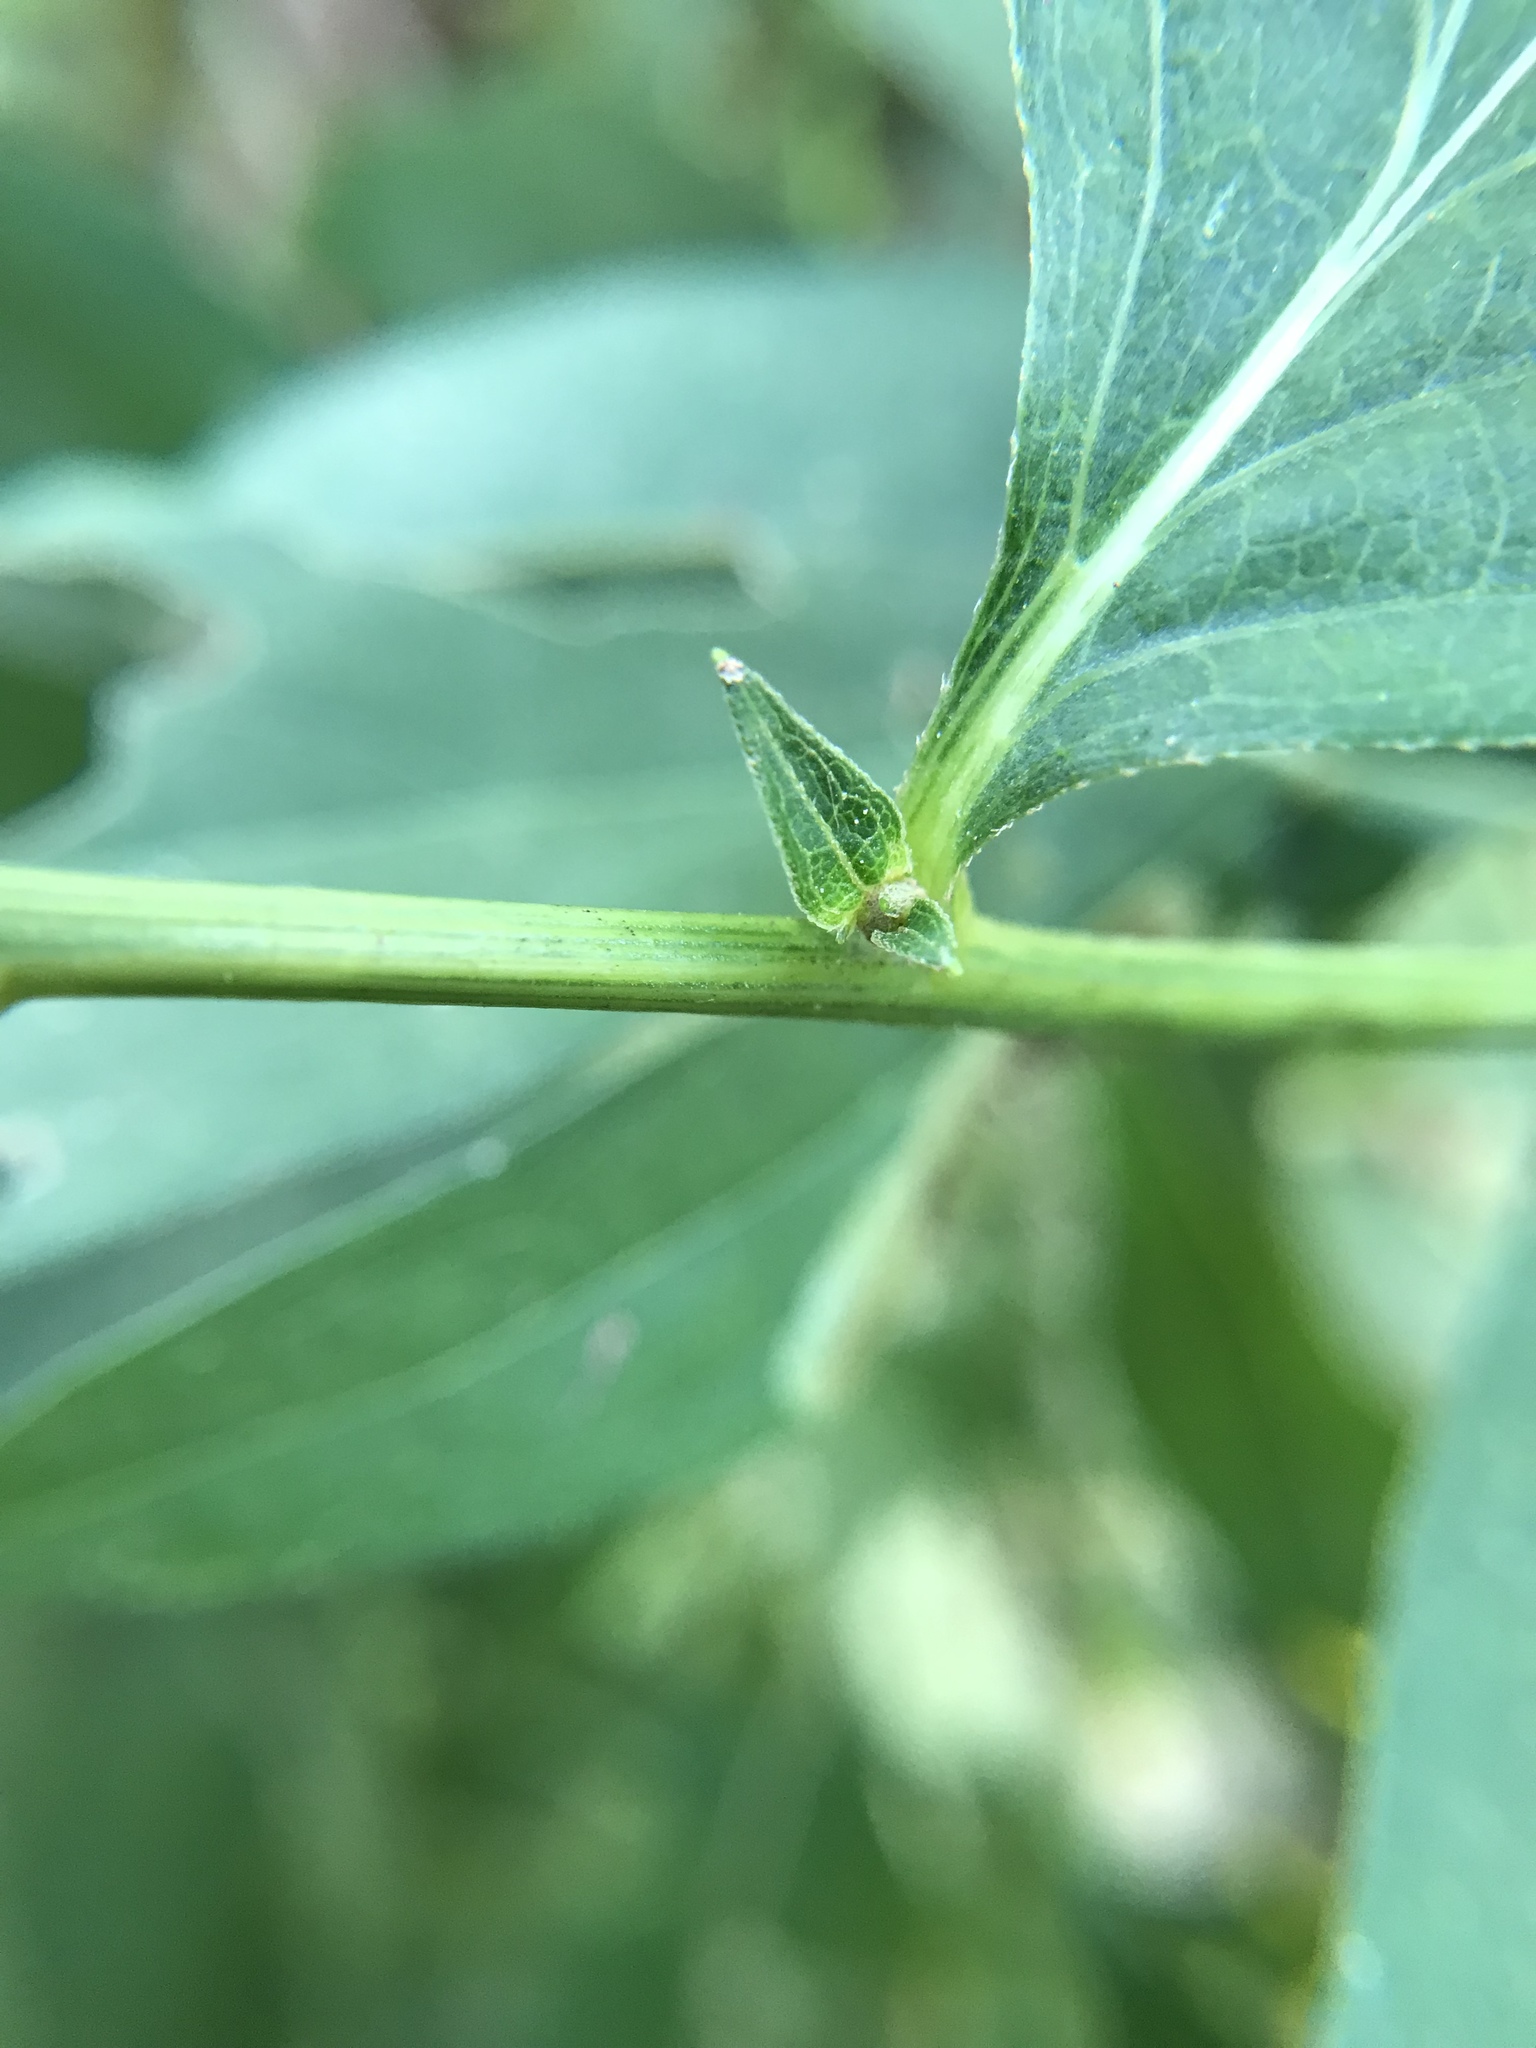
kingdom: Plantae
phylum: Tracheophyta
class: Magnoliopsida
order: Asterales
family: Asteraceae
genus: Rudbeckia
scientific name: Rudbeckia laciniata
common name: Coneflower
